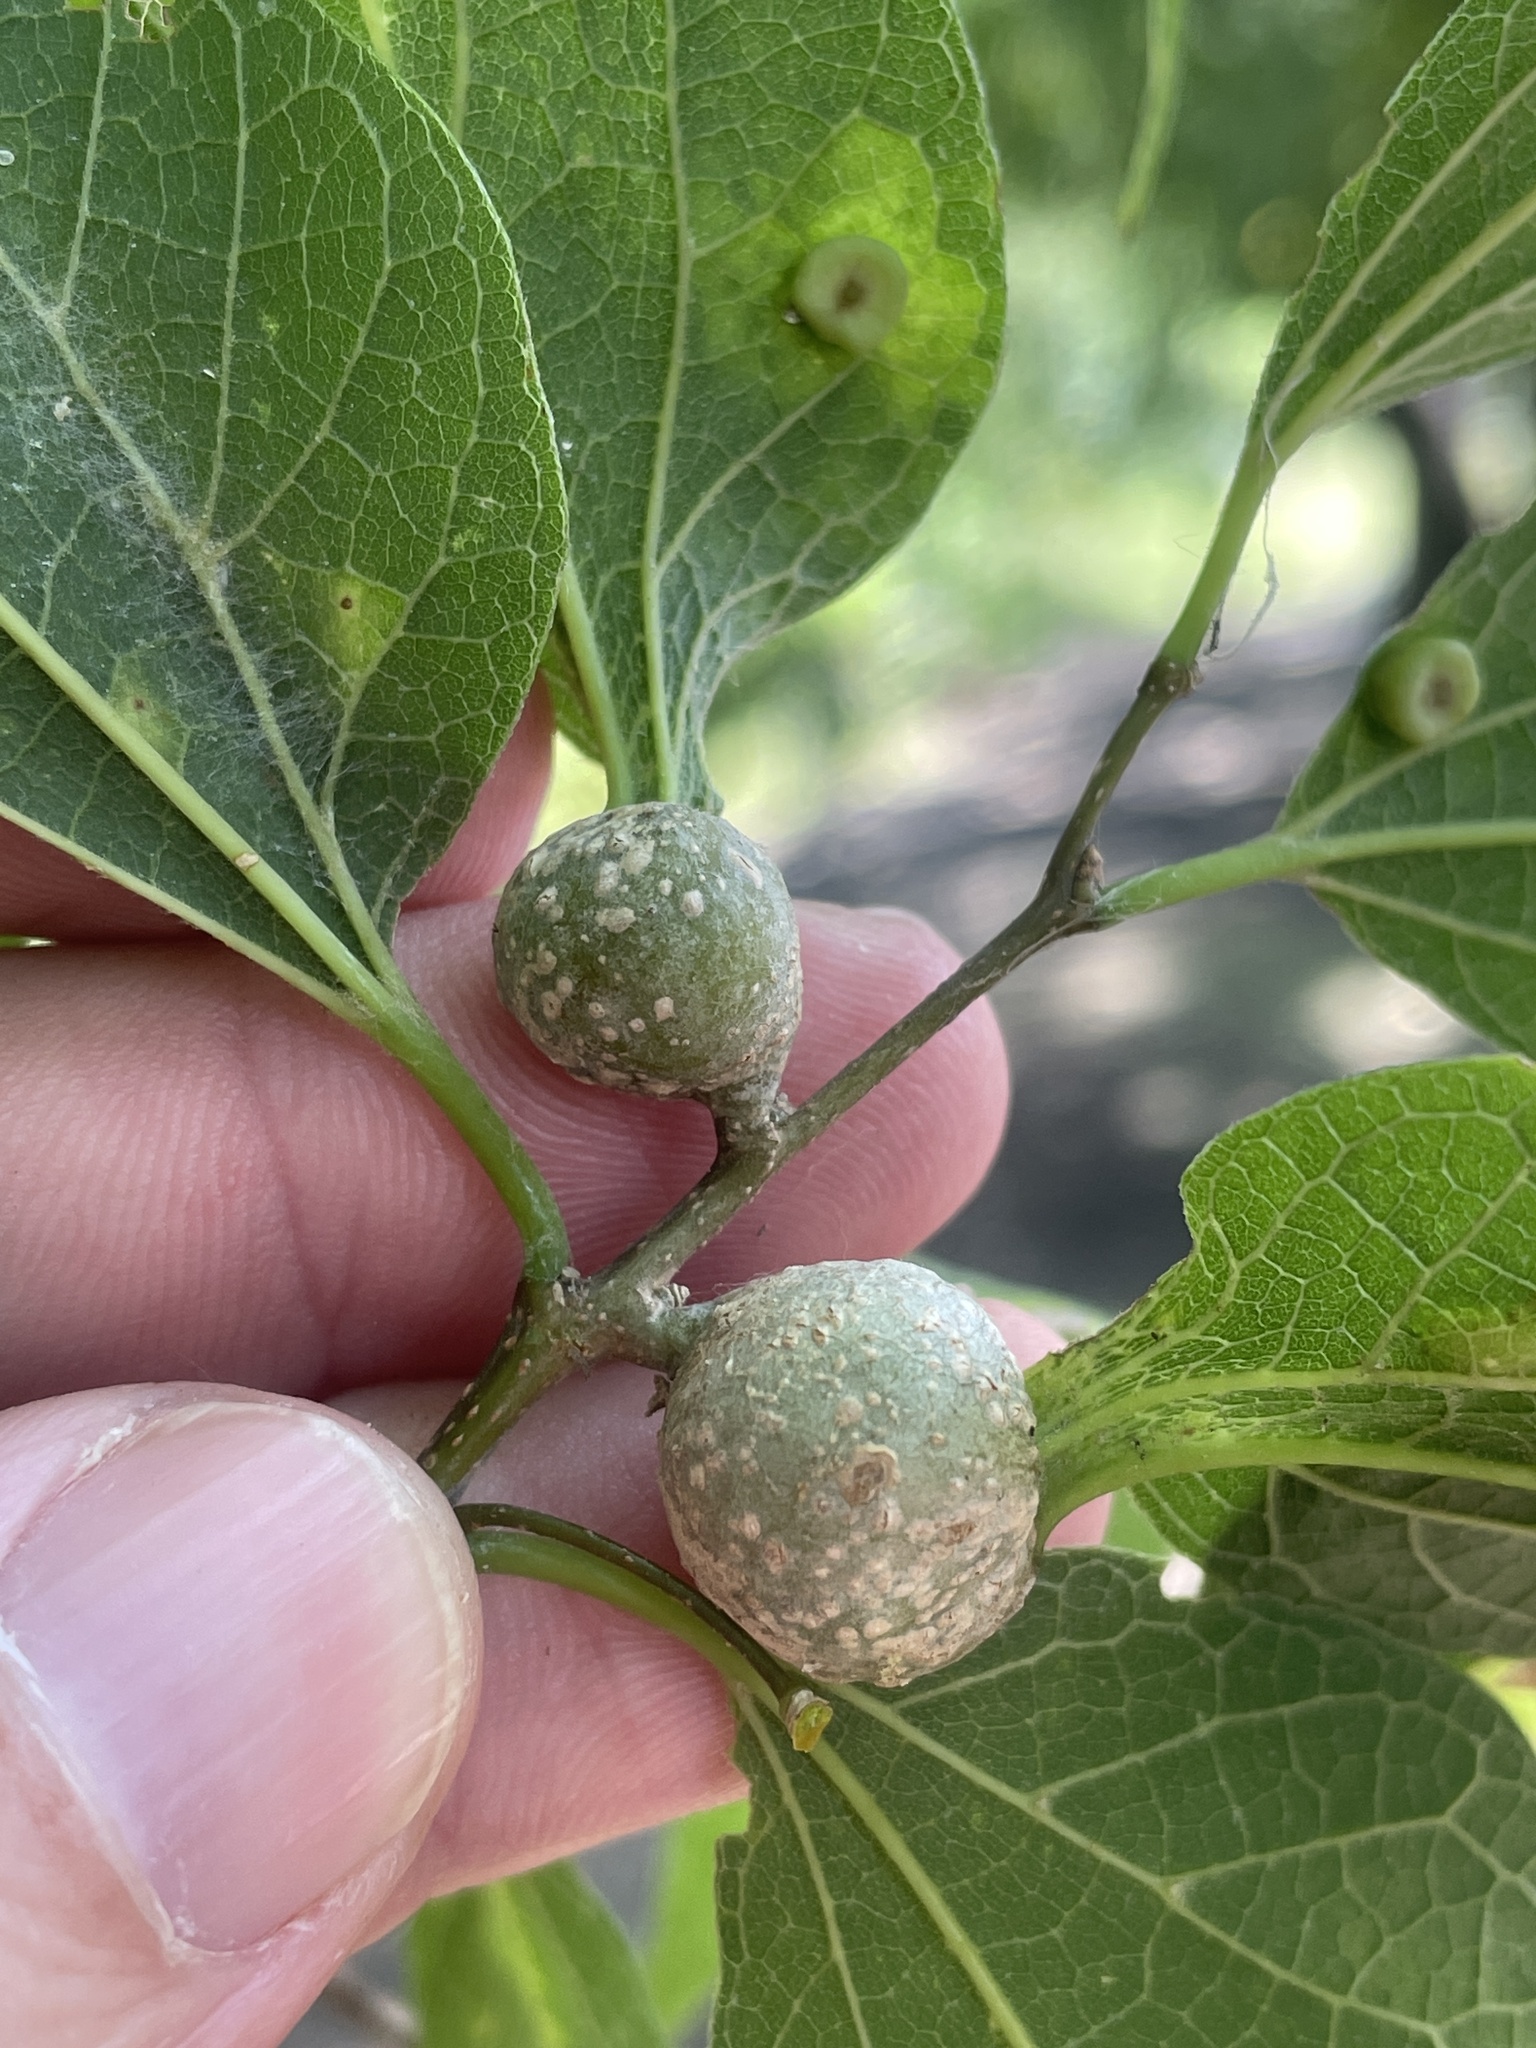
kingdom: Animalia
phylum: Arthropoda
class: Insecta
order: Hemiptera
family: Aphalaridae
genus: Pachypsylla
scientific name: Pachypsylla venusta
